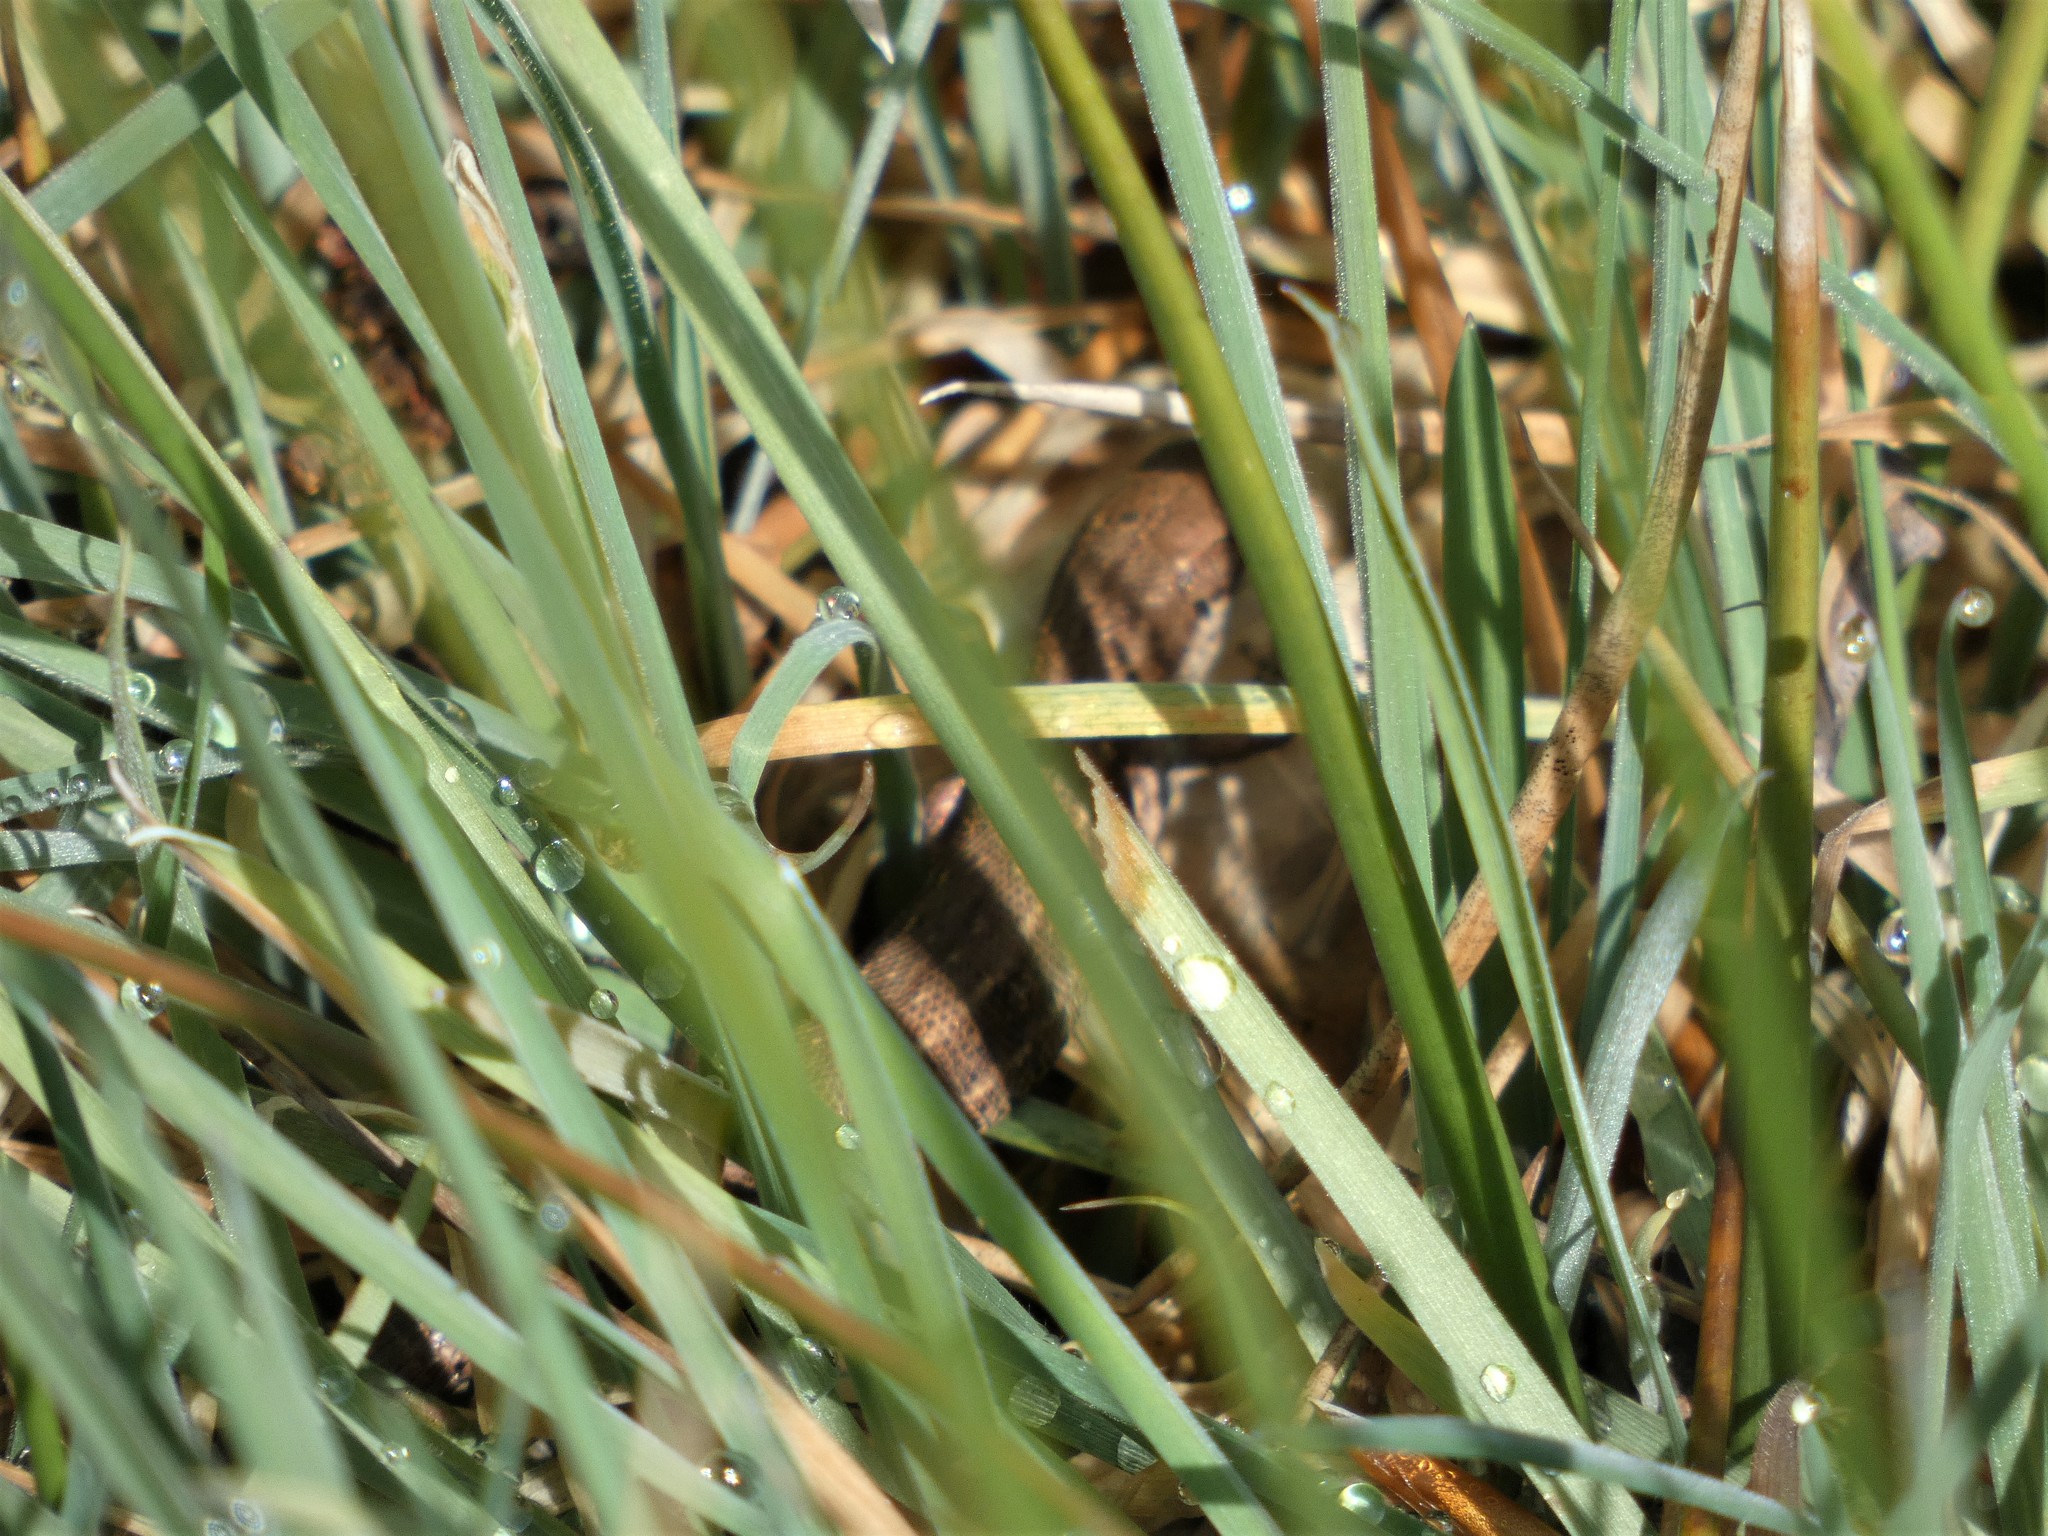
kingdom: Animalia
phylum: Chordata
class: Squamata
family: Lacertidae
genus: Zootoca
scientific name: Zootoca vivipara
